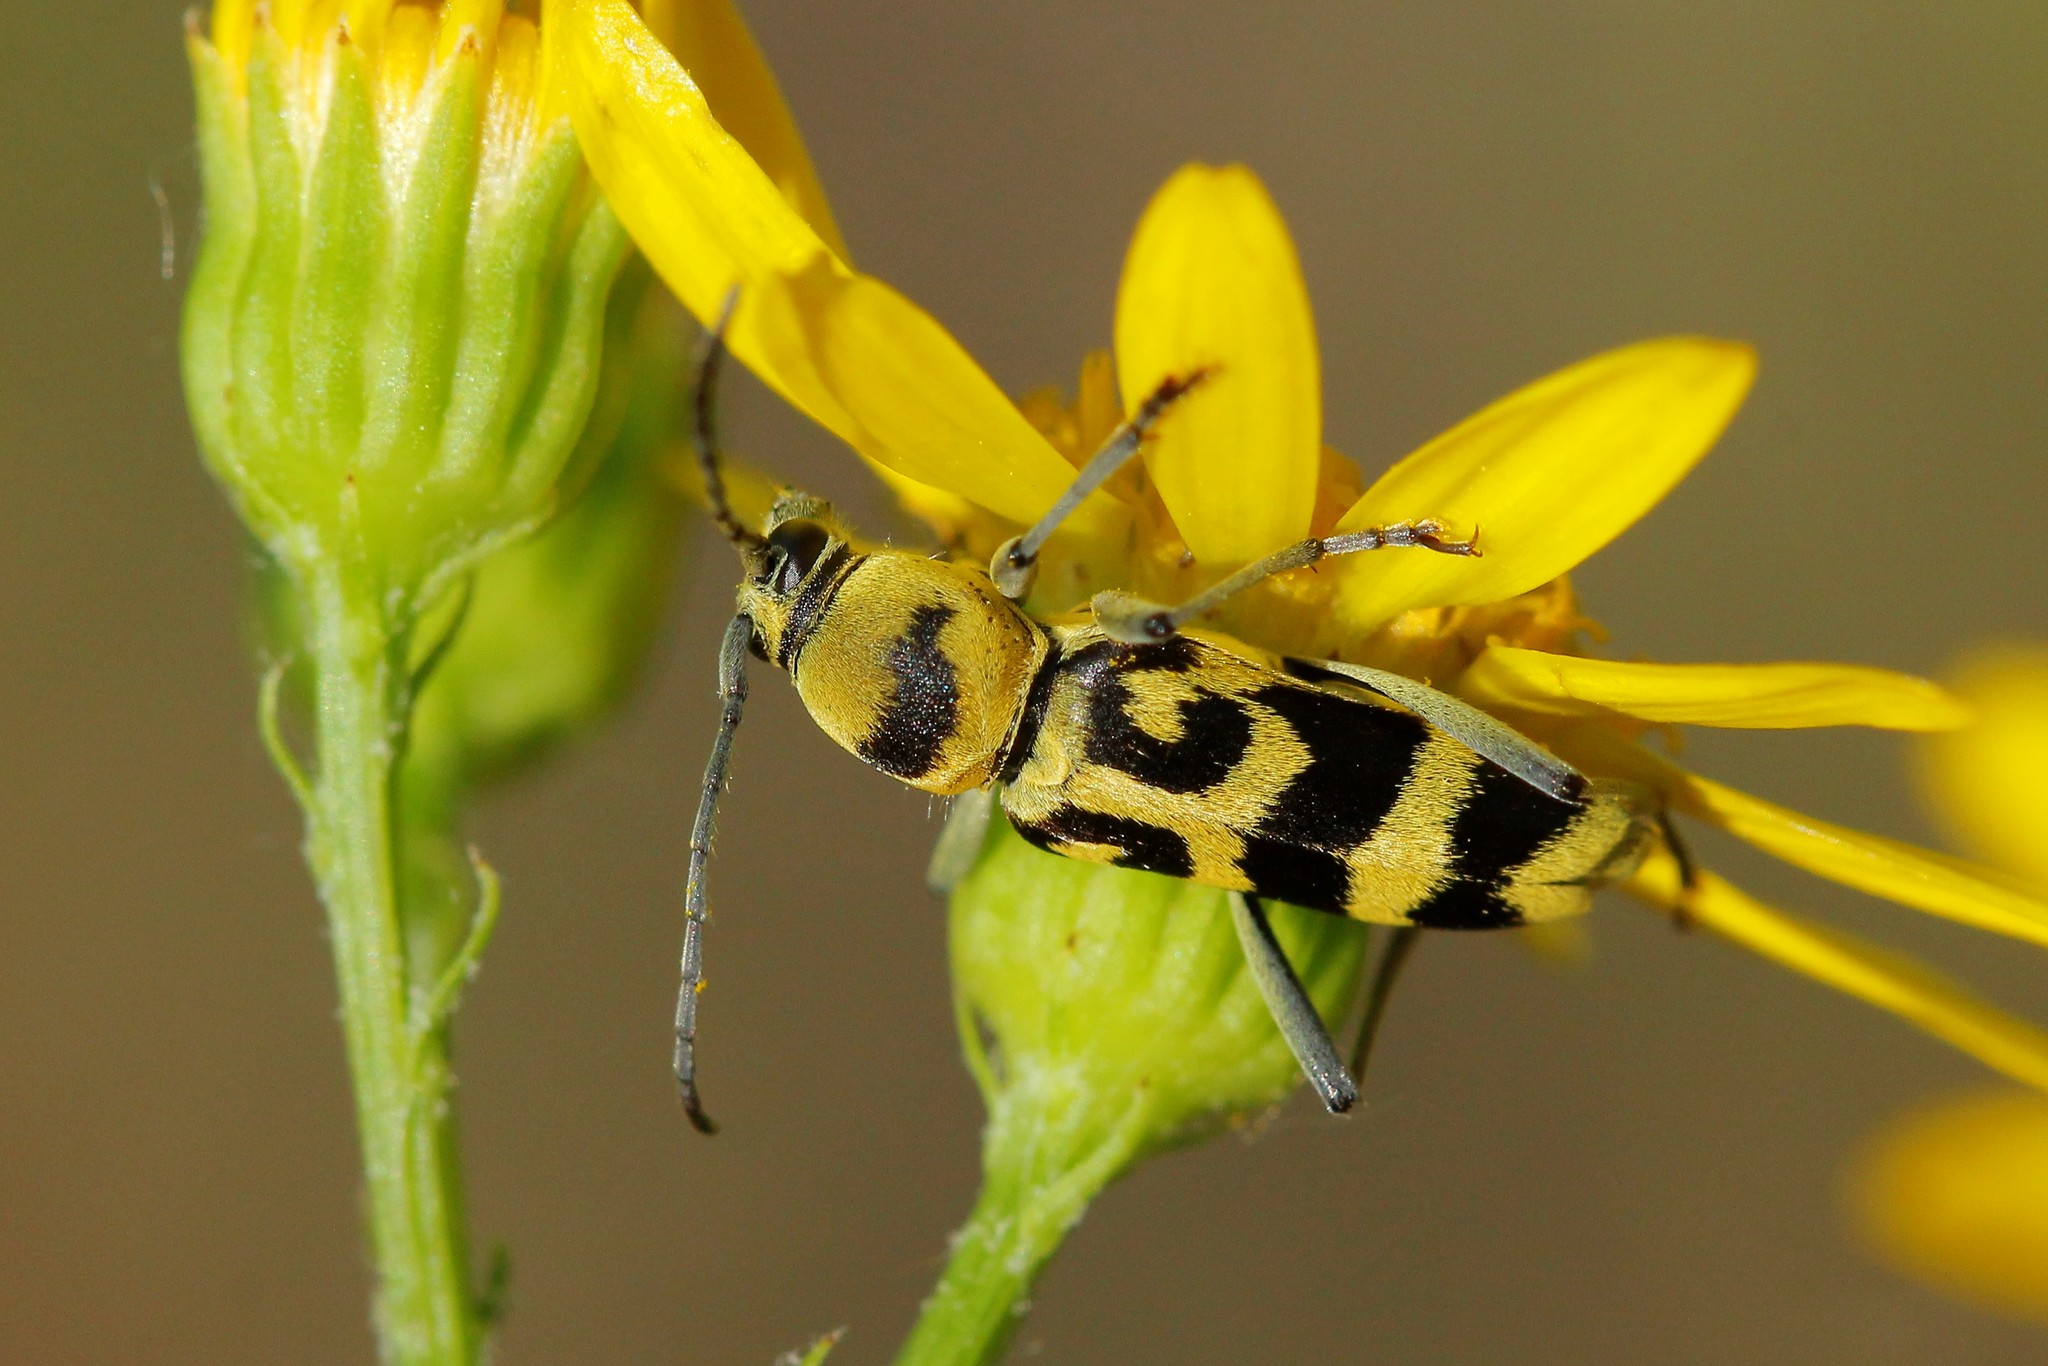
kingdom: Animalia
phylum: Arthropoda
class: Insecta
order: Coleoptera
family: Cerambycidae
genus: Chlorophorus
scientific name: Chlorophorus varius
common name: Grape wood borer
